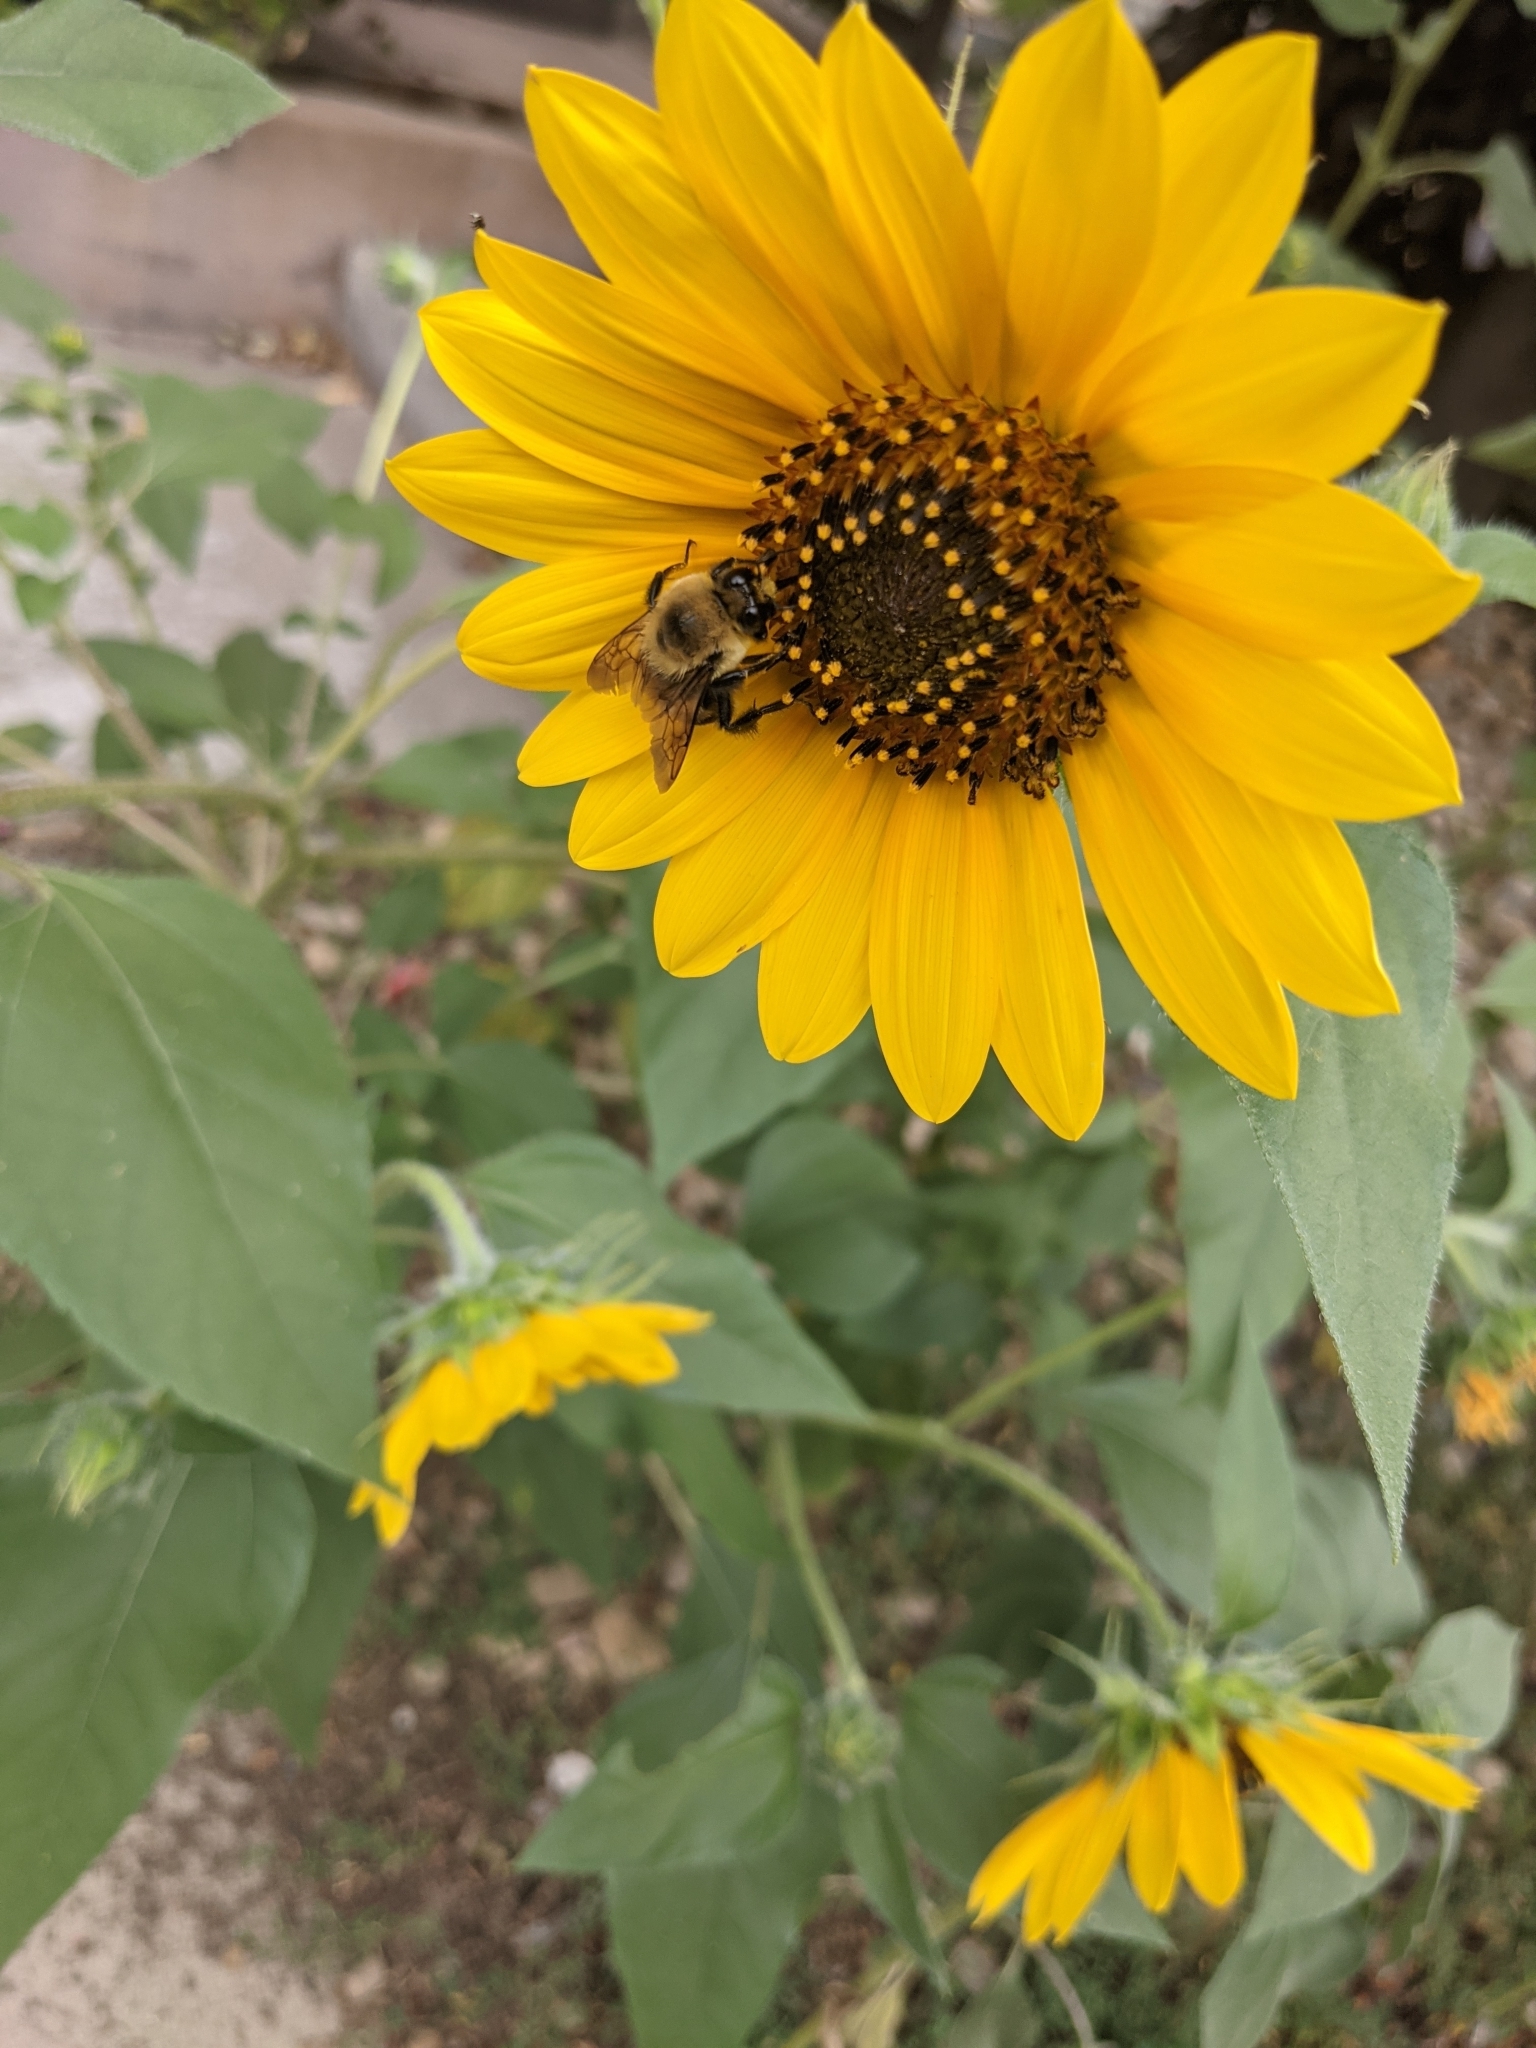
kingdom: Animalia
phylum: Arthropoda
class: Insecta
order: Hymenoptera
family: Apidae
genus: Bombus
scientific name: Bombus griseocollis
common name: Brown-belted bumble bee
